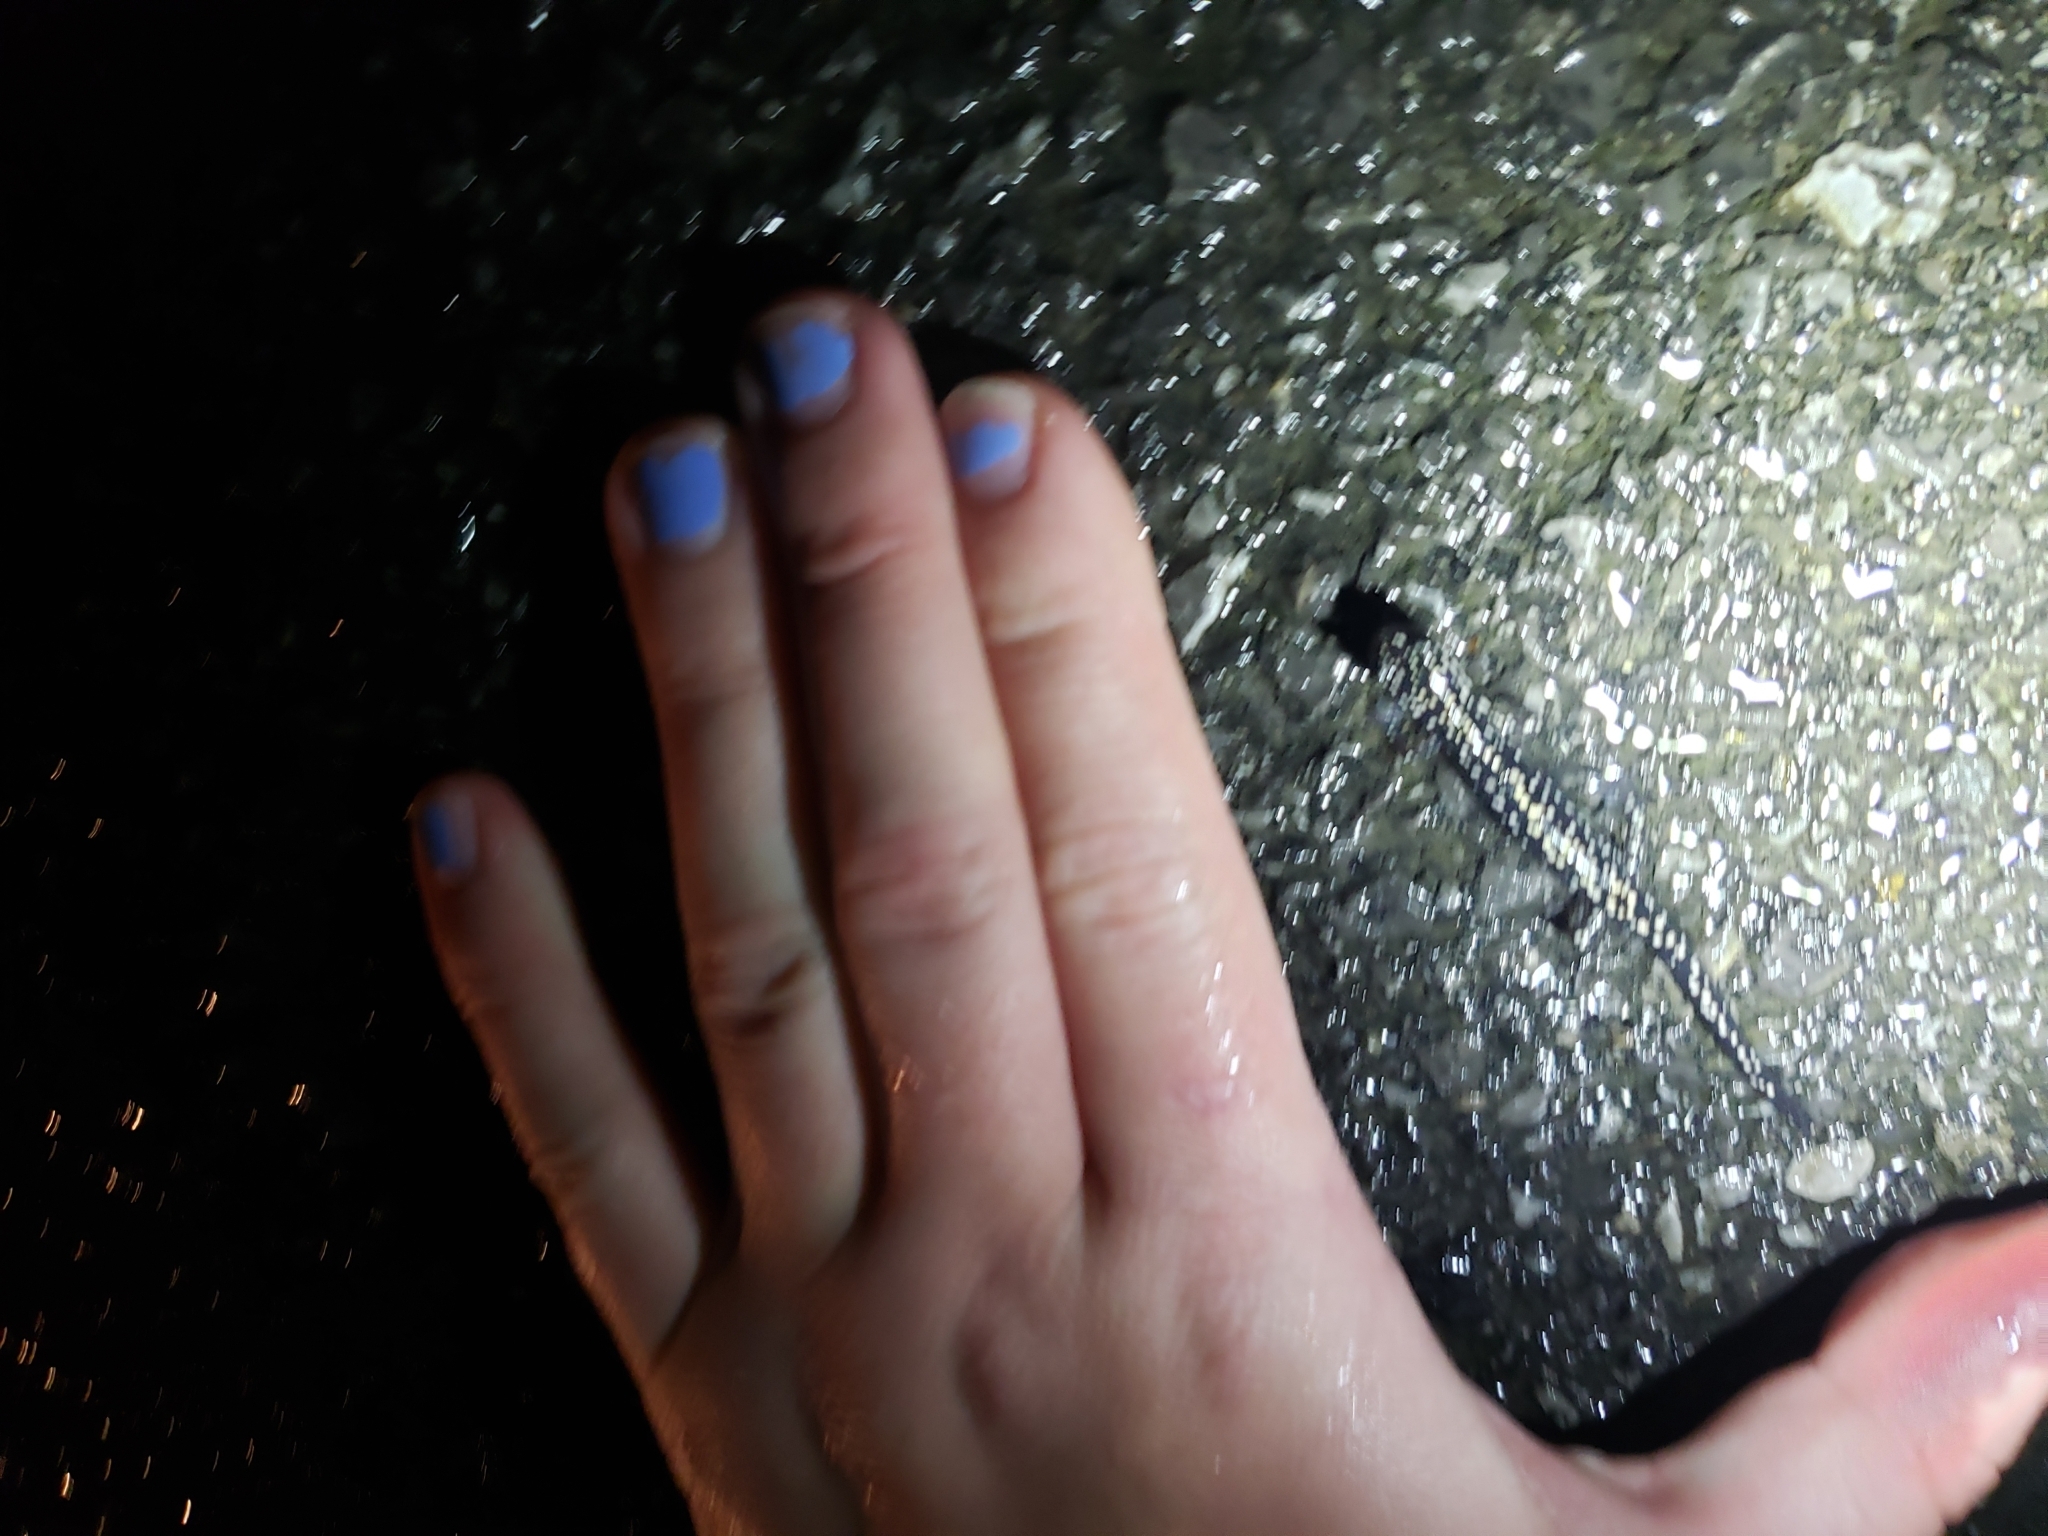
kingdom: Animalia
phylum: Chordata
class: Amphibia
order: Caudata
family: Plethodontidae
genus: Plethodon
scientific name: Plethodon glutinosus
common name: Northern slimy salamander
